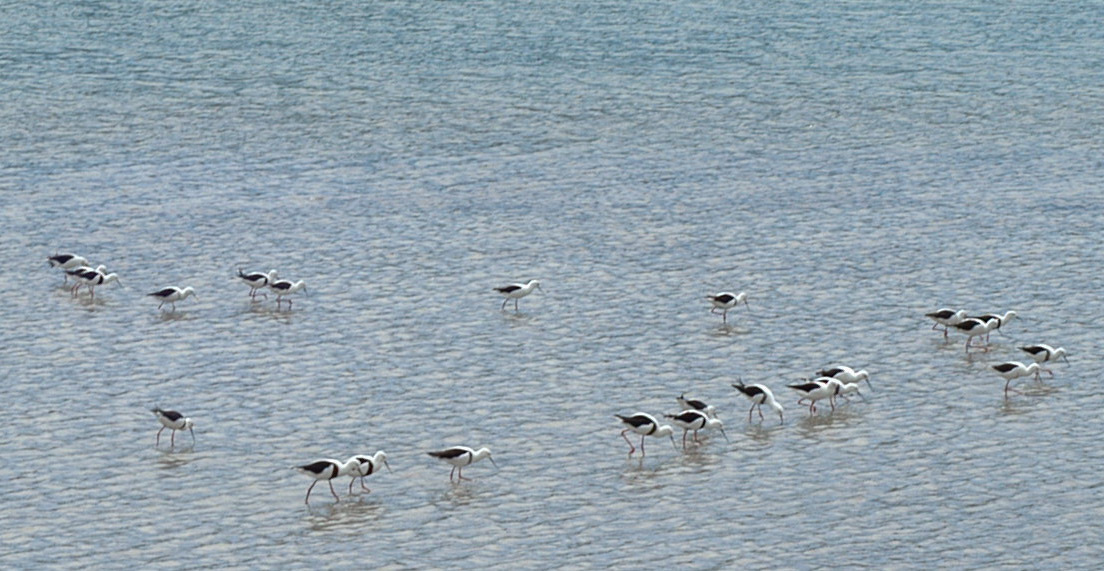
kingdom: Animalia
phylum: Chordata
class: Aves
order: Charadriiformes
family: Recurvirostridae
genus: Cladorhynchus
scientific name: Cladorhynchus leucocephalus
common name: Banded stilt
